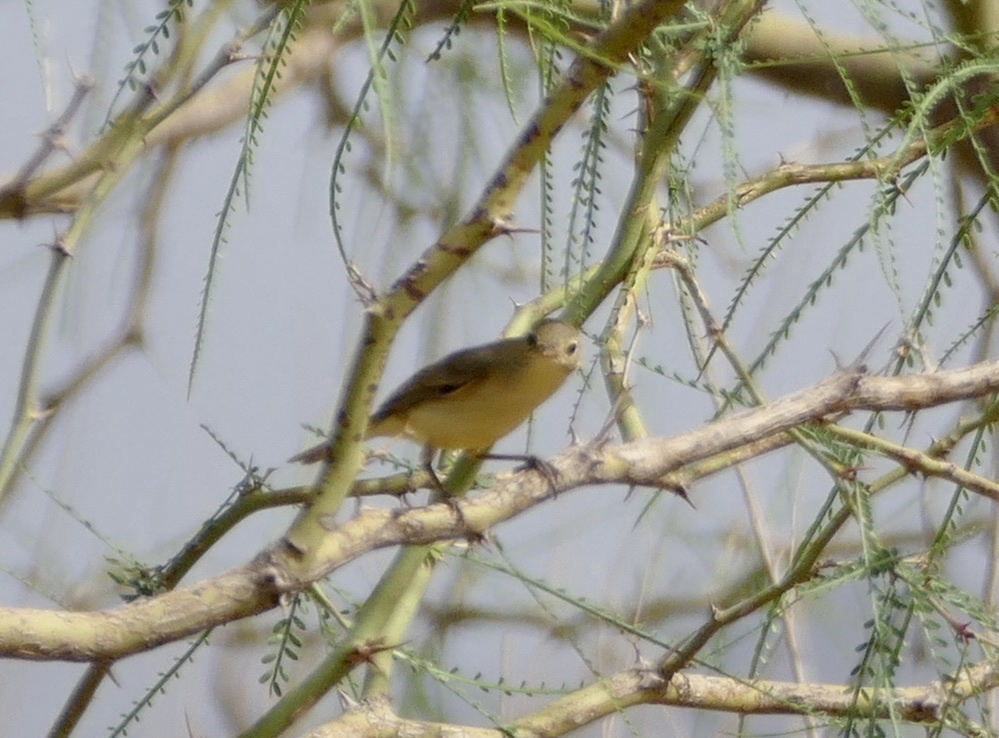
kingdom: Animalia
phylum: Chordata
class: Aves
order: Passeriformes
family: Acrocephalidae
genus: Hippolais
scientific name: Hippolais polyglotta
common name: Melodious warbler
